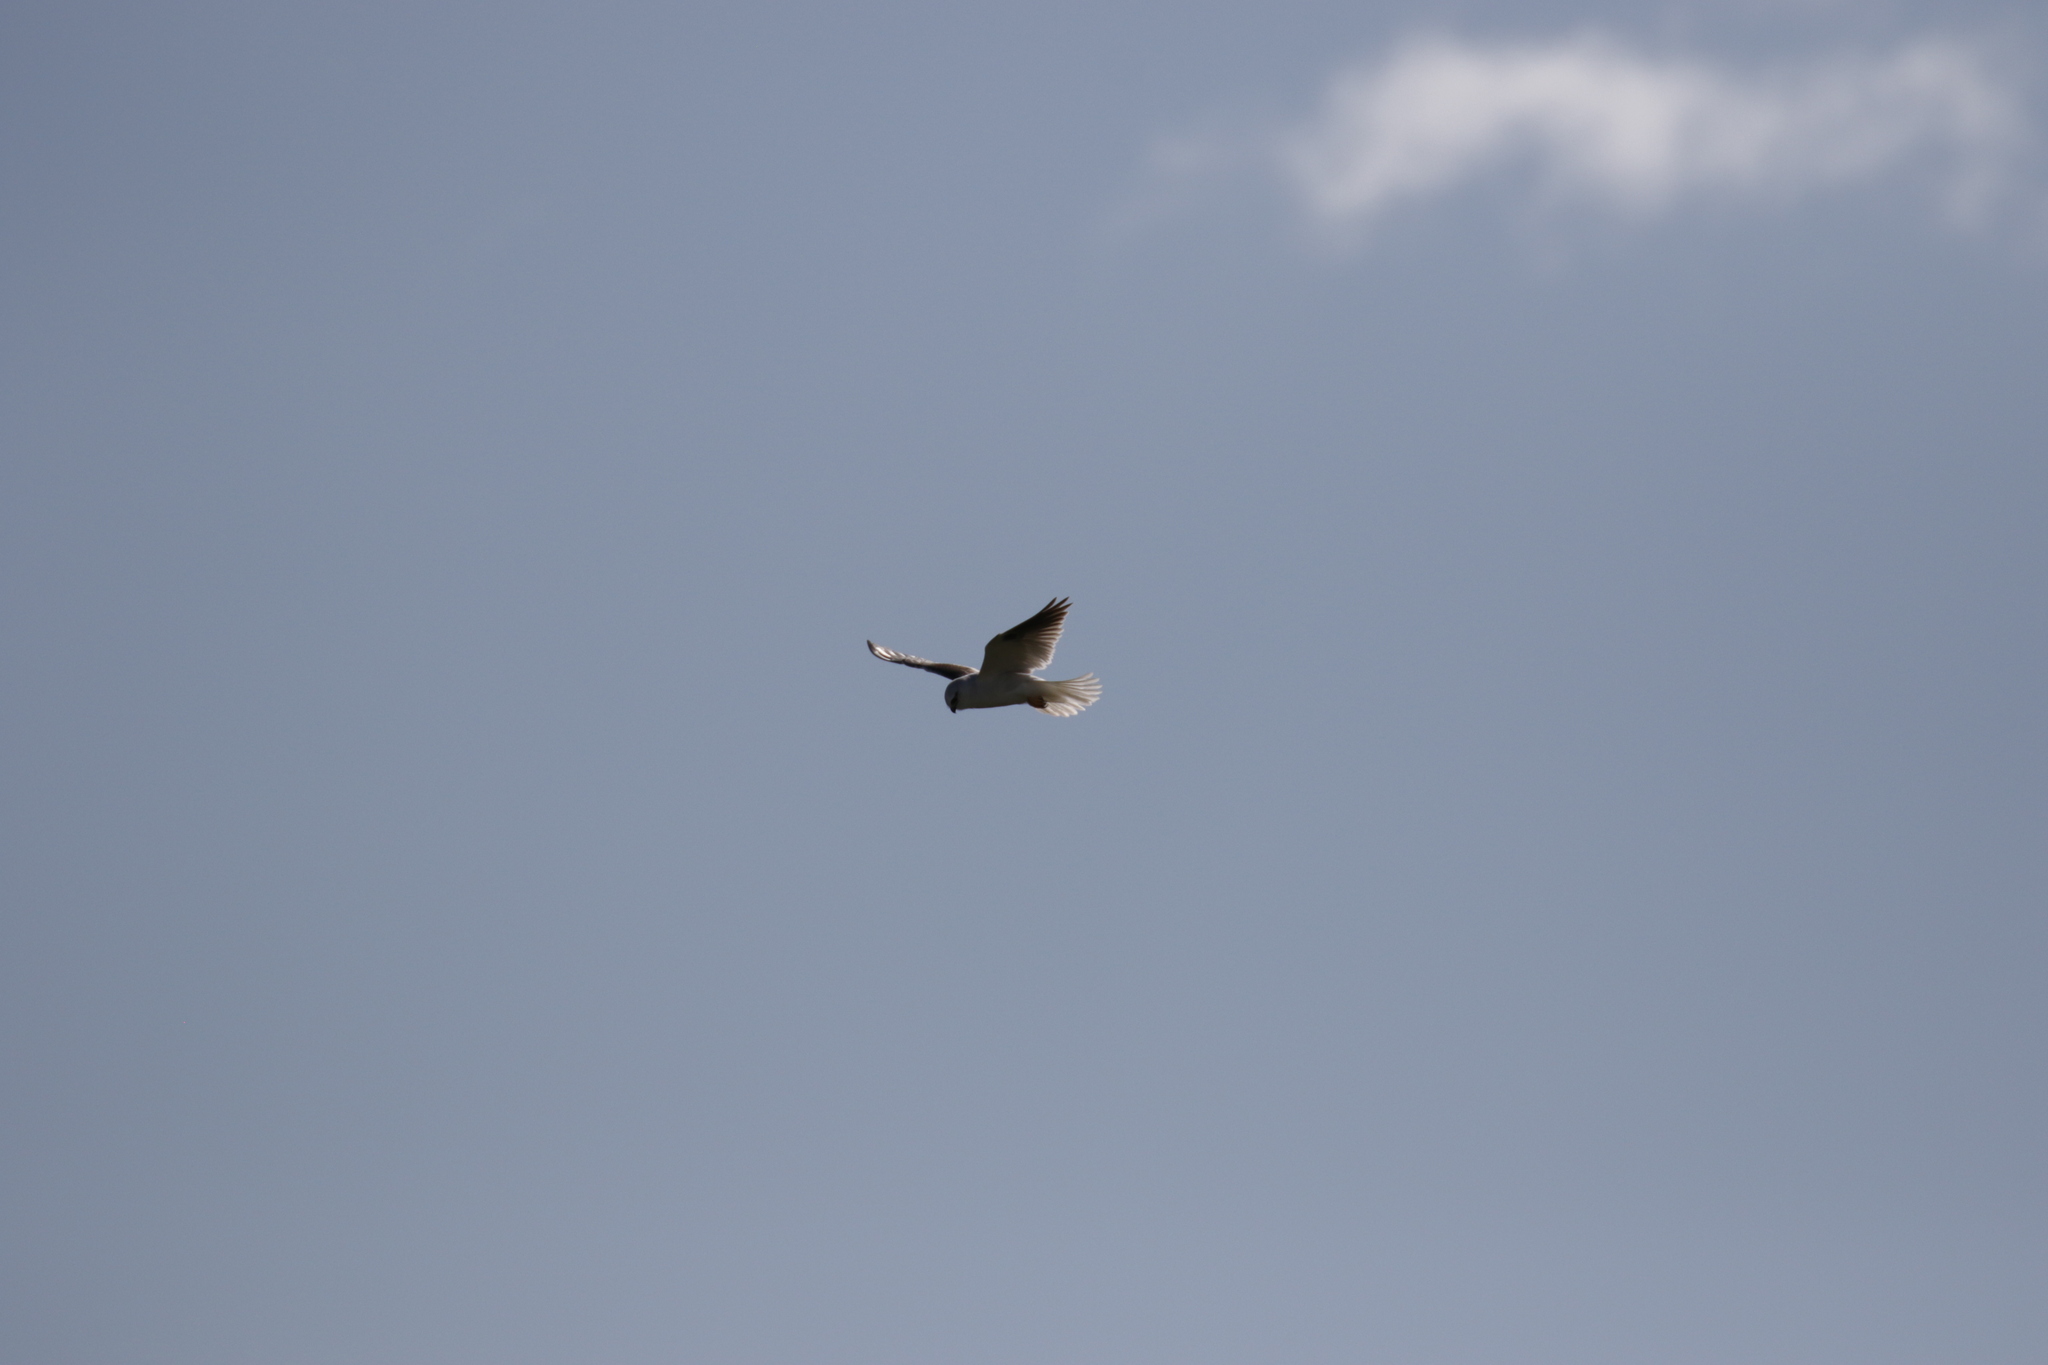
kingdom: Animalia
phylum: Chordata
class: Aves
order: Accipitriformes
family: Accipitridae
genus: Elanus
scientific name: Elanus axillaris
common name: Black-shouldered kite
